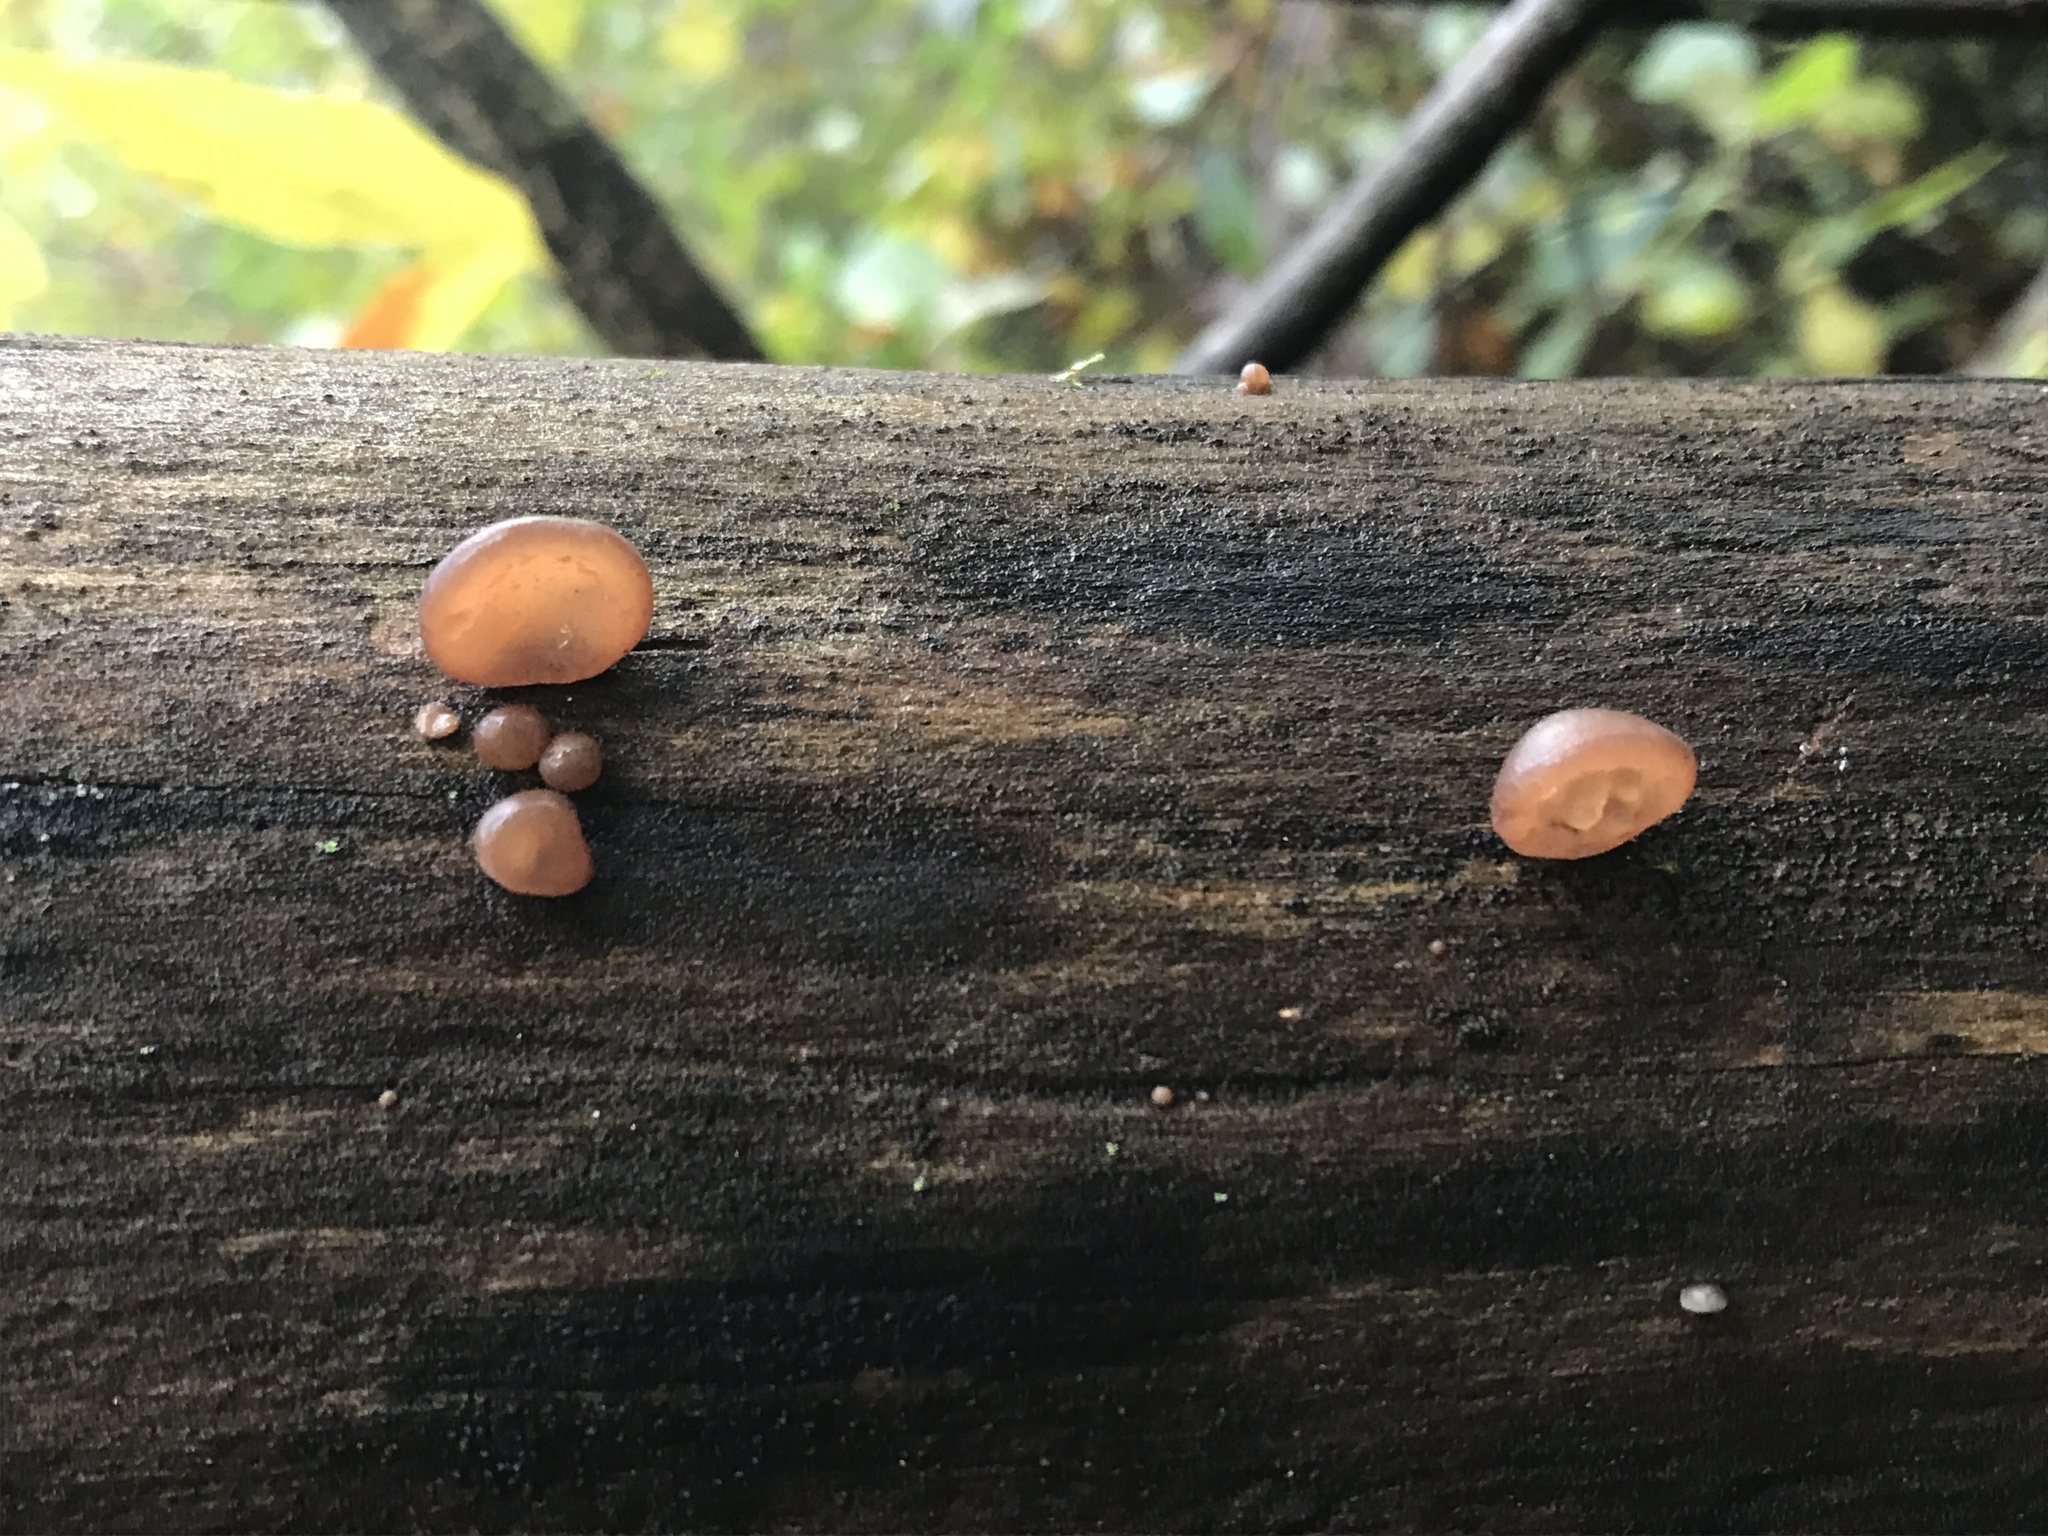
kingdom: Fungi
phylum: Basidiomycota
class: Agaricomycetes
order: Auriculariales
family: Auriculariaceae
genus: Auricularia
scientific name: Auricularia angiospermarum
